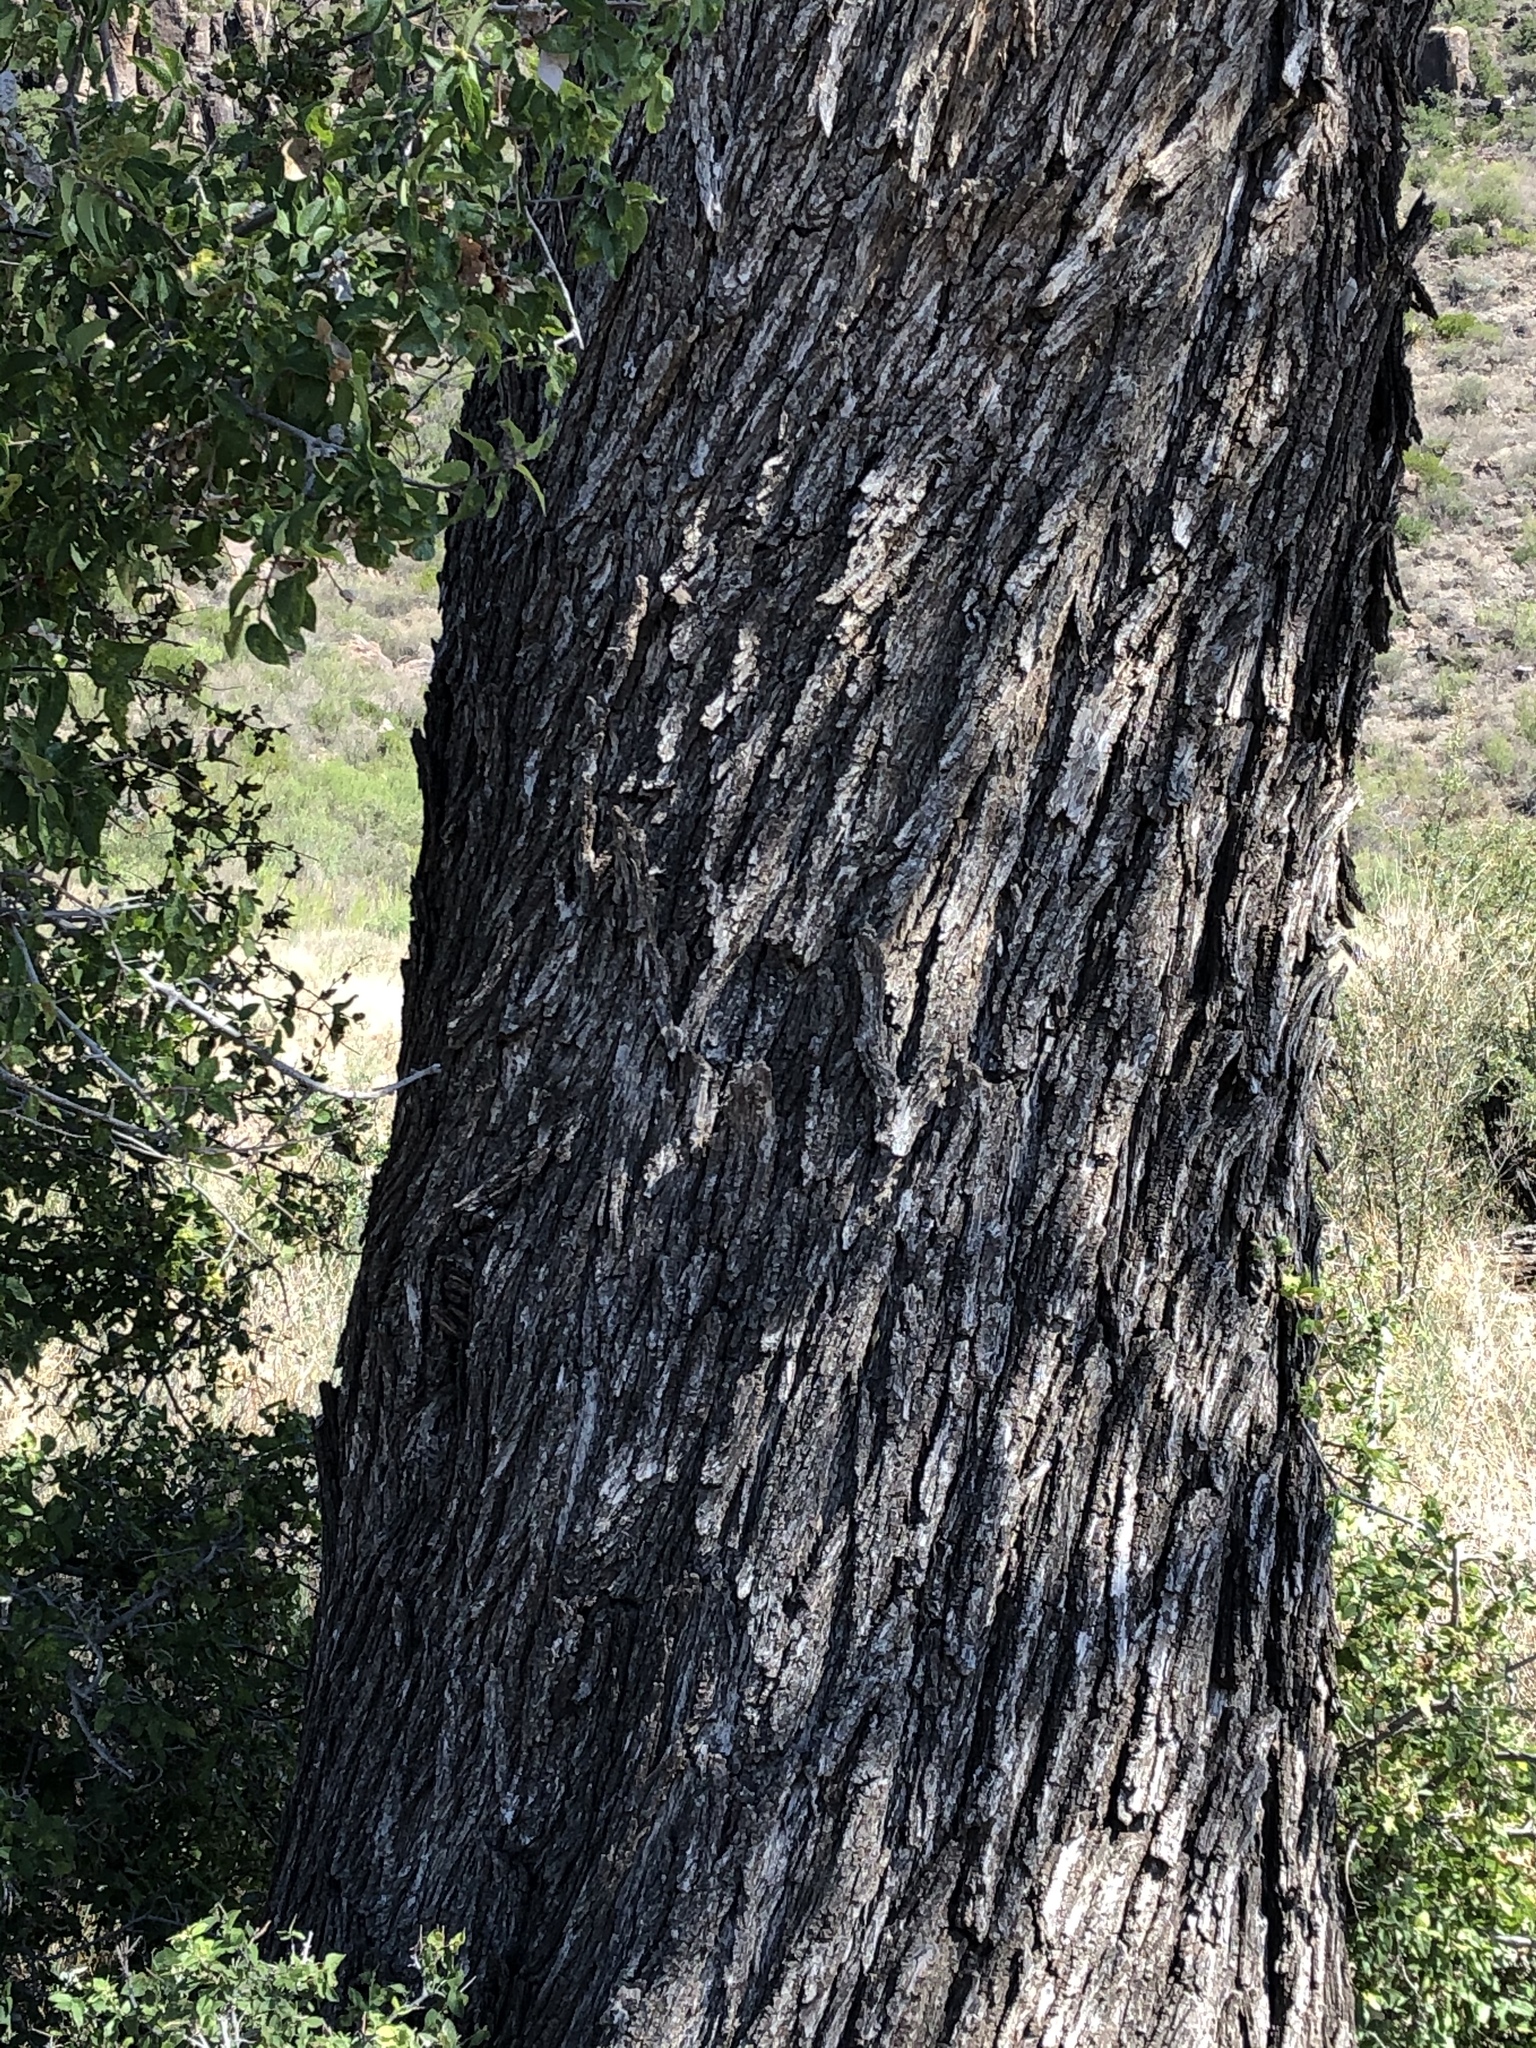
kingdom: Plantae
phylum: Tracheophyta
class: Magnoliopsida
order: Fagales
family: Juglandaceae
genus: Juglans
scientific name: Juglans major
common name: Arizona walnut
